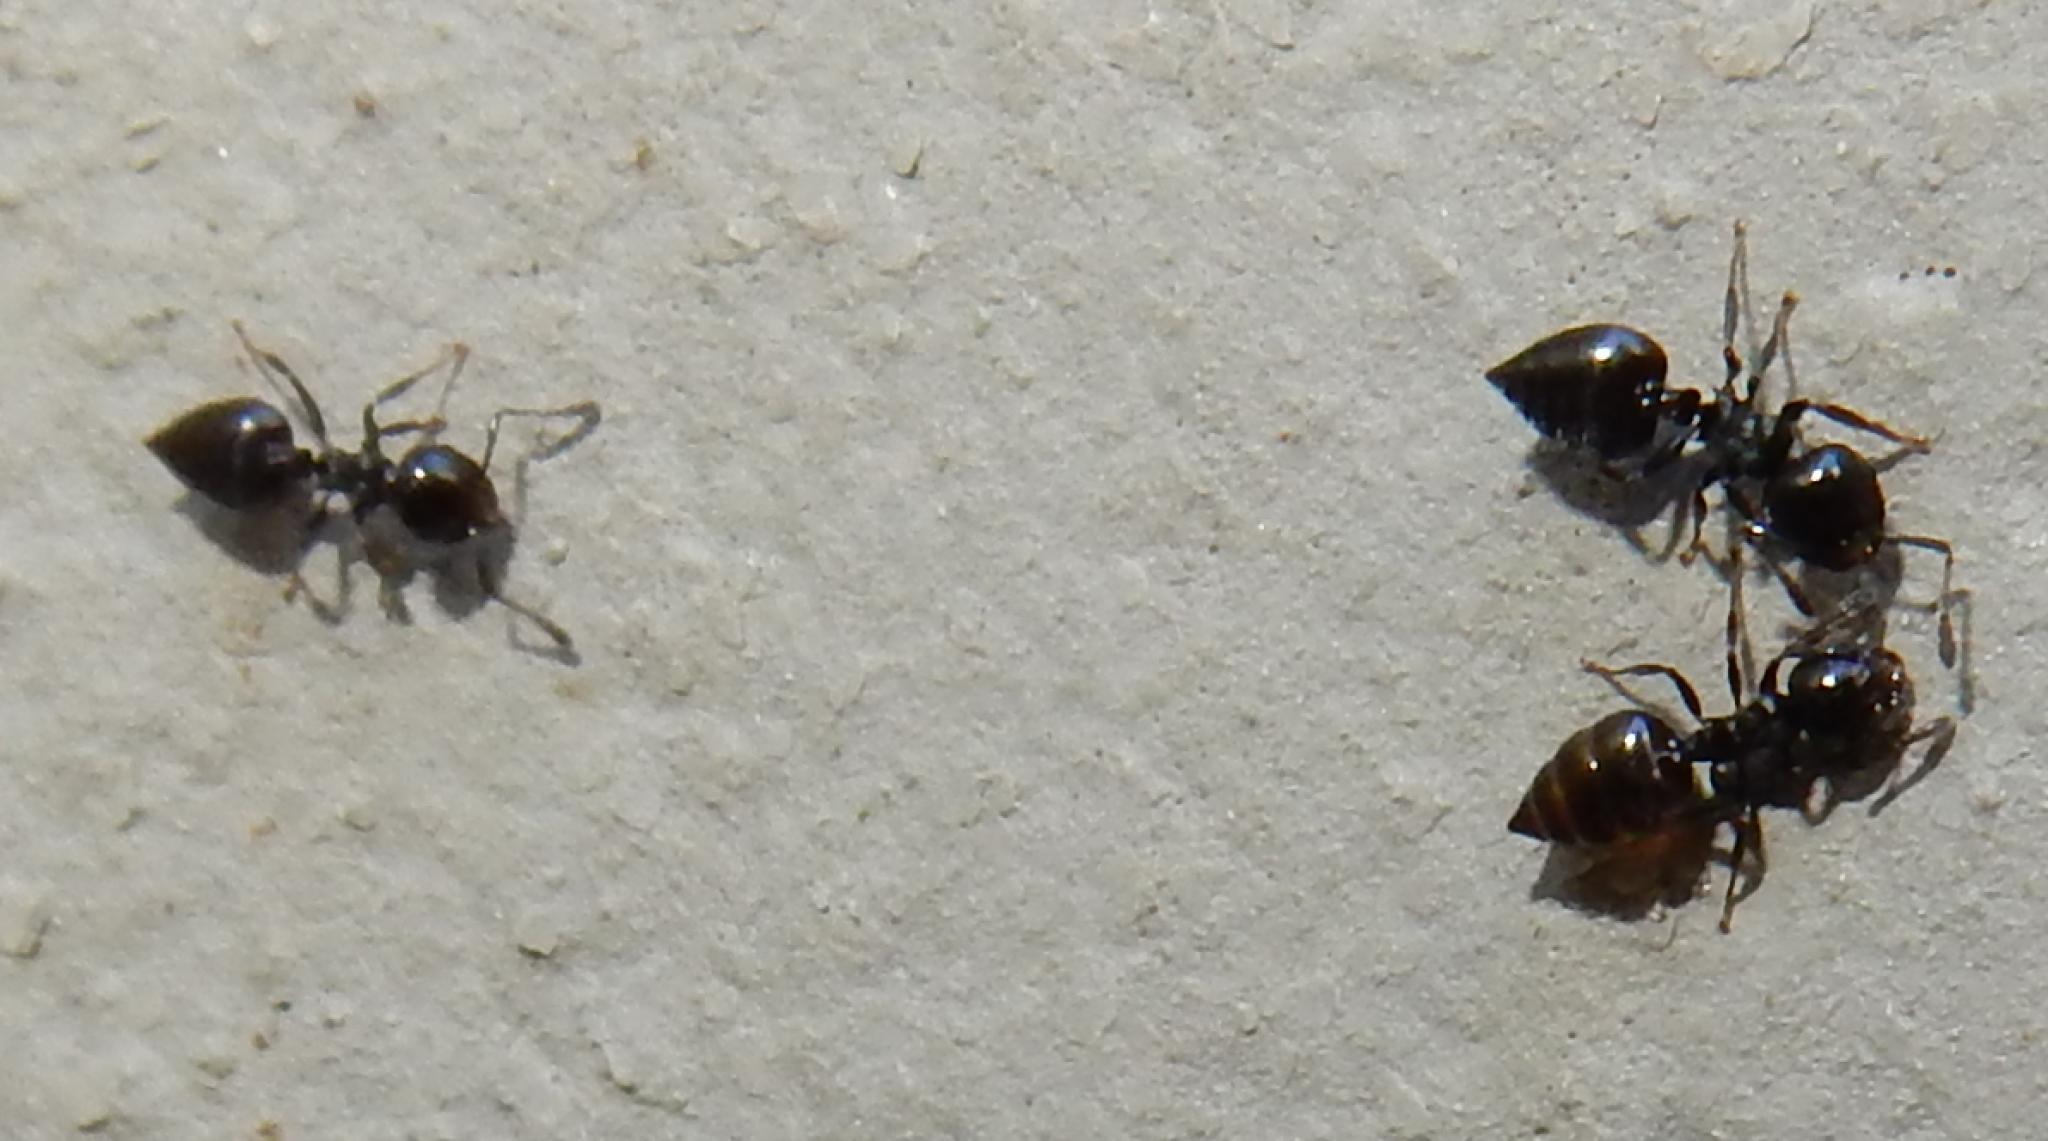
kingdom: Animalia
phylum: Arthropoda
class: Insecta
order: Hymenoptera
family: Formicidae
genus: Crematogaster
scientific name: Crematogaster peringueyi
